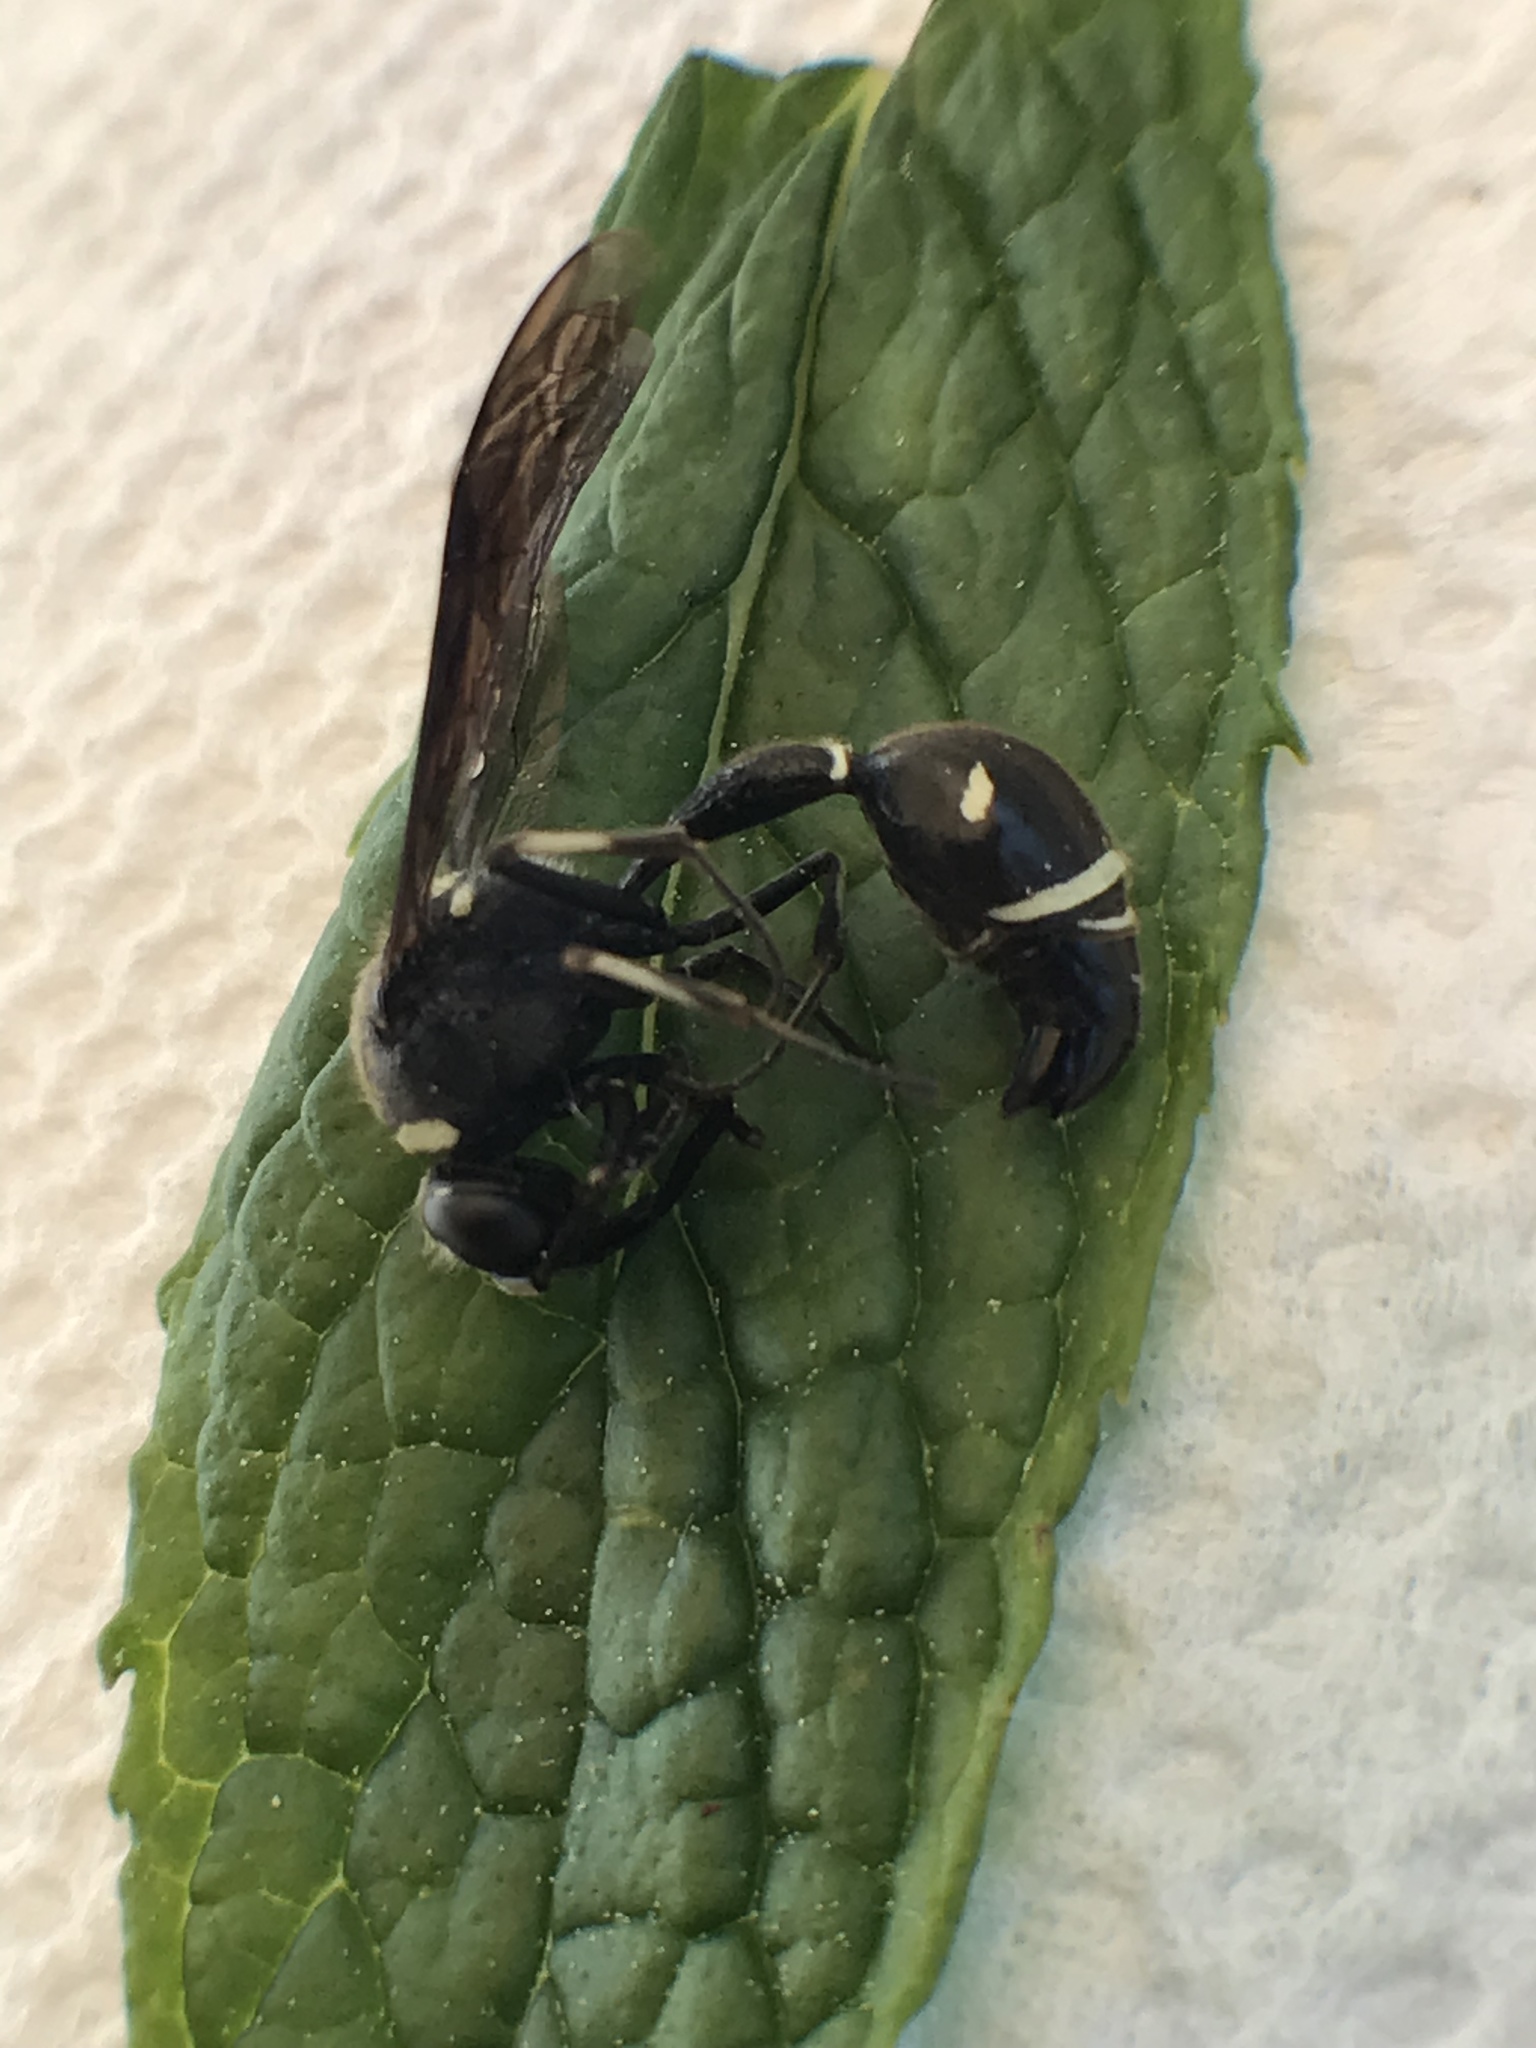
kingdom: Animalia
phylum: Arthropoda
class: Insecta
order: Hymenoptera
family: Vespidae
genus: Eumenes
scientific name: Eumenes fraternus
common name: Fraternal potter wasp
